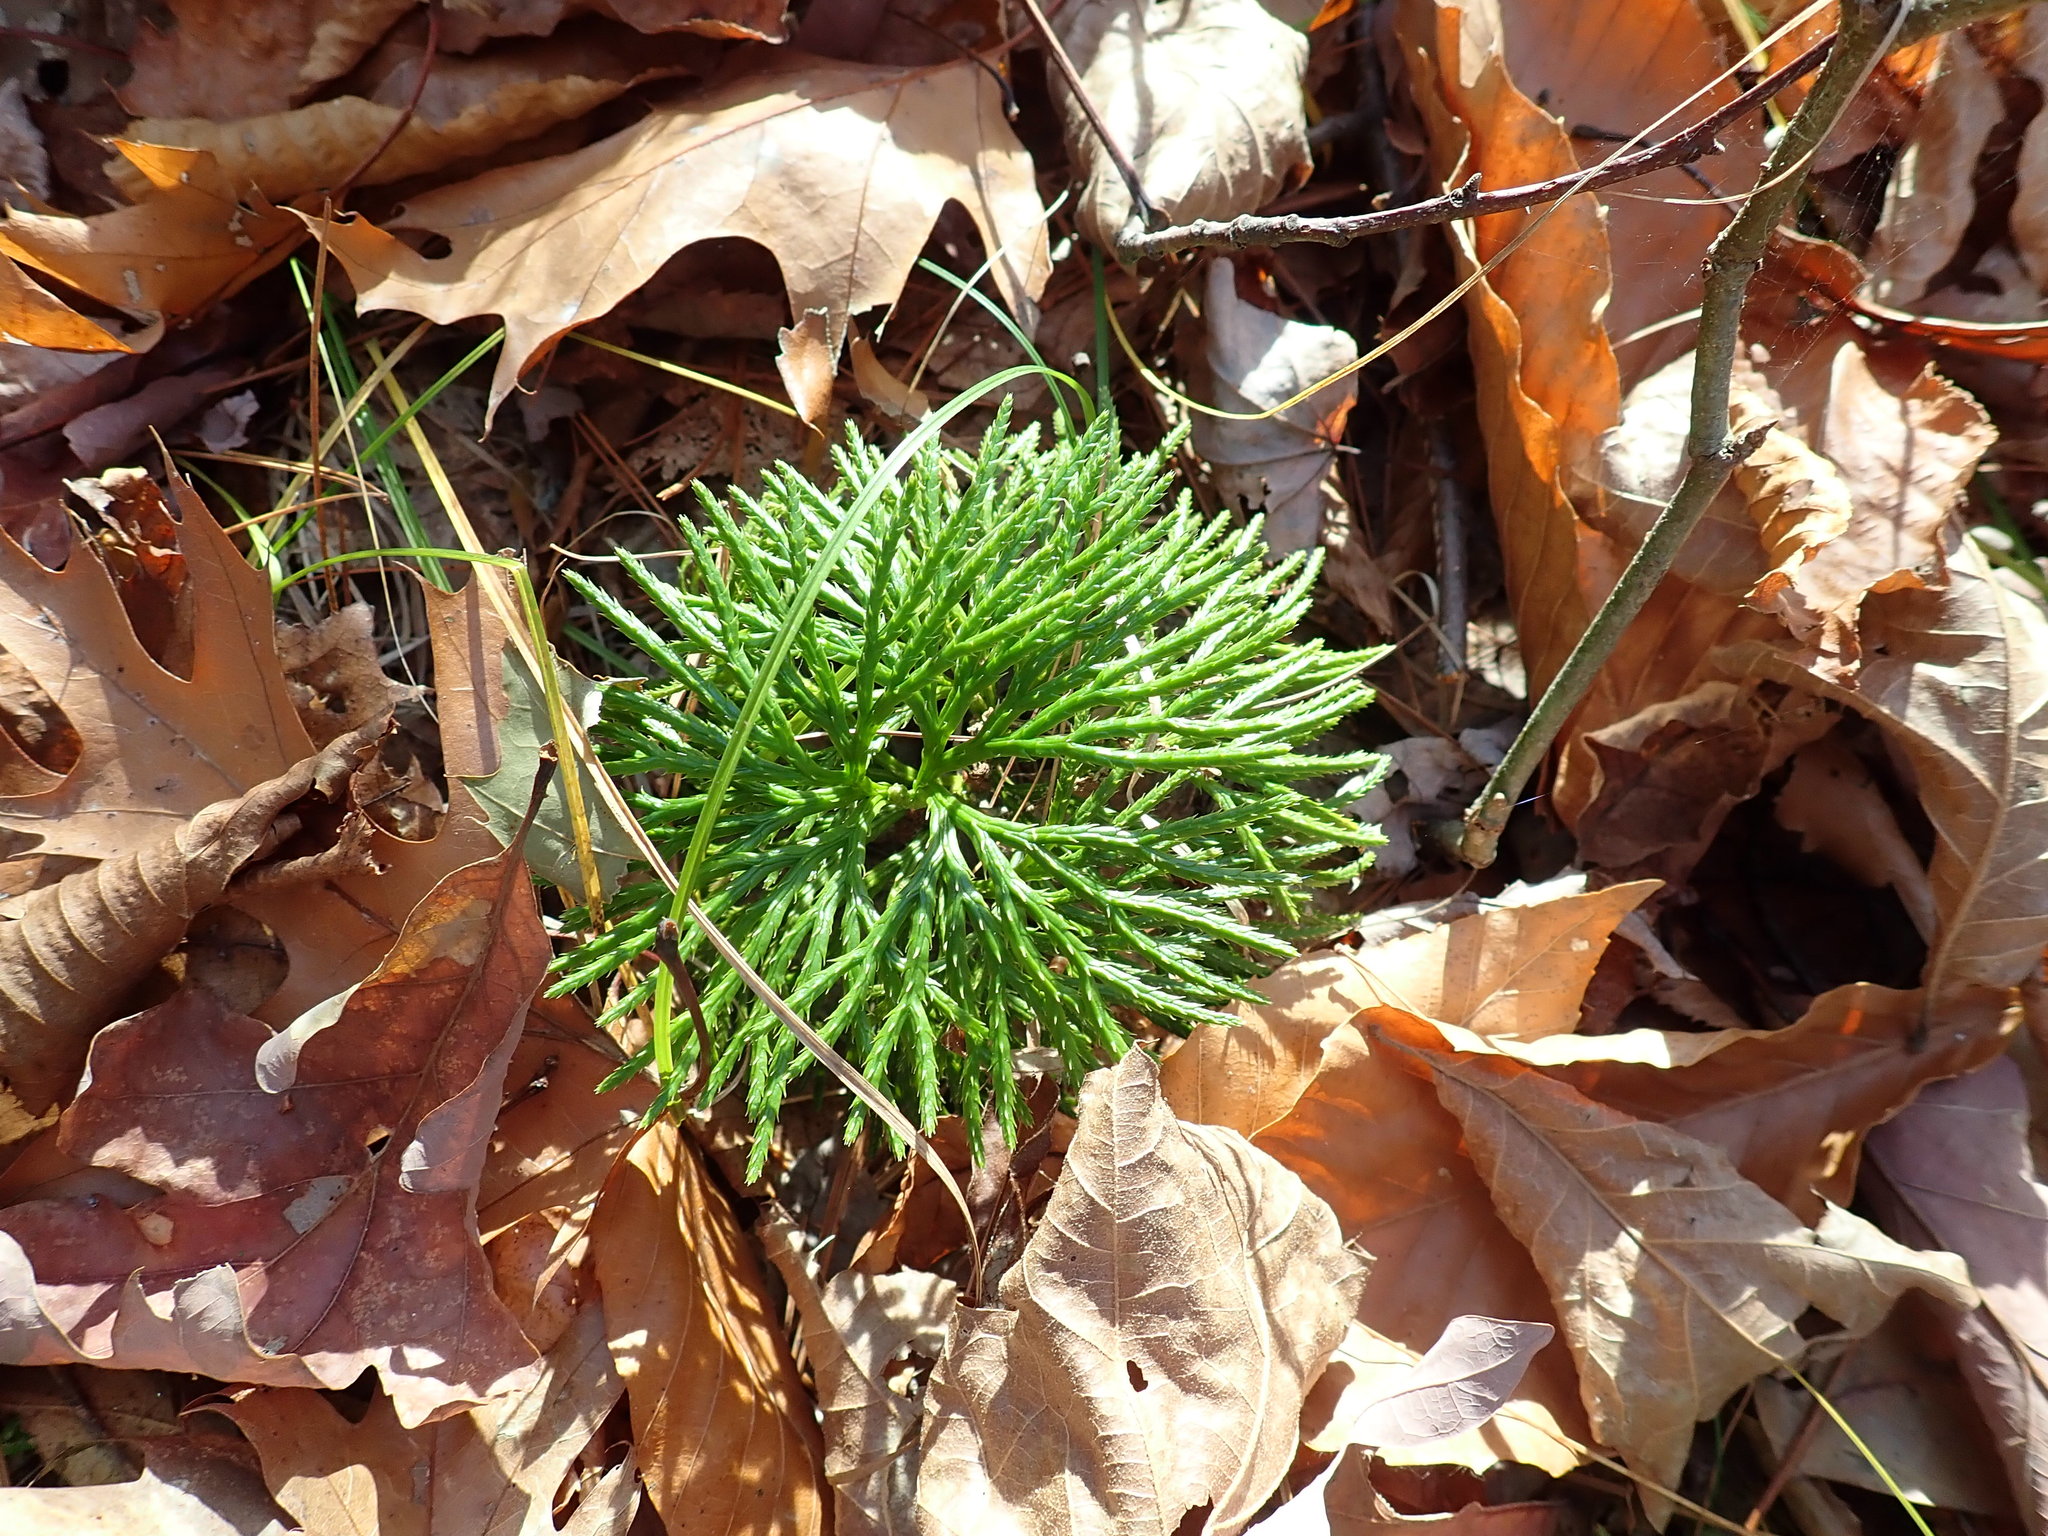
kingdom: Plantae
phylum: Tracheophyta
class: Lycopodiopsida
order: Lycopodiales
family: Lycopodiaceae
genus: Diphasiastrum
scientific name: Diphasiastrum digitatum
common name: Southern running-pine
